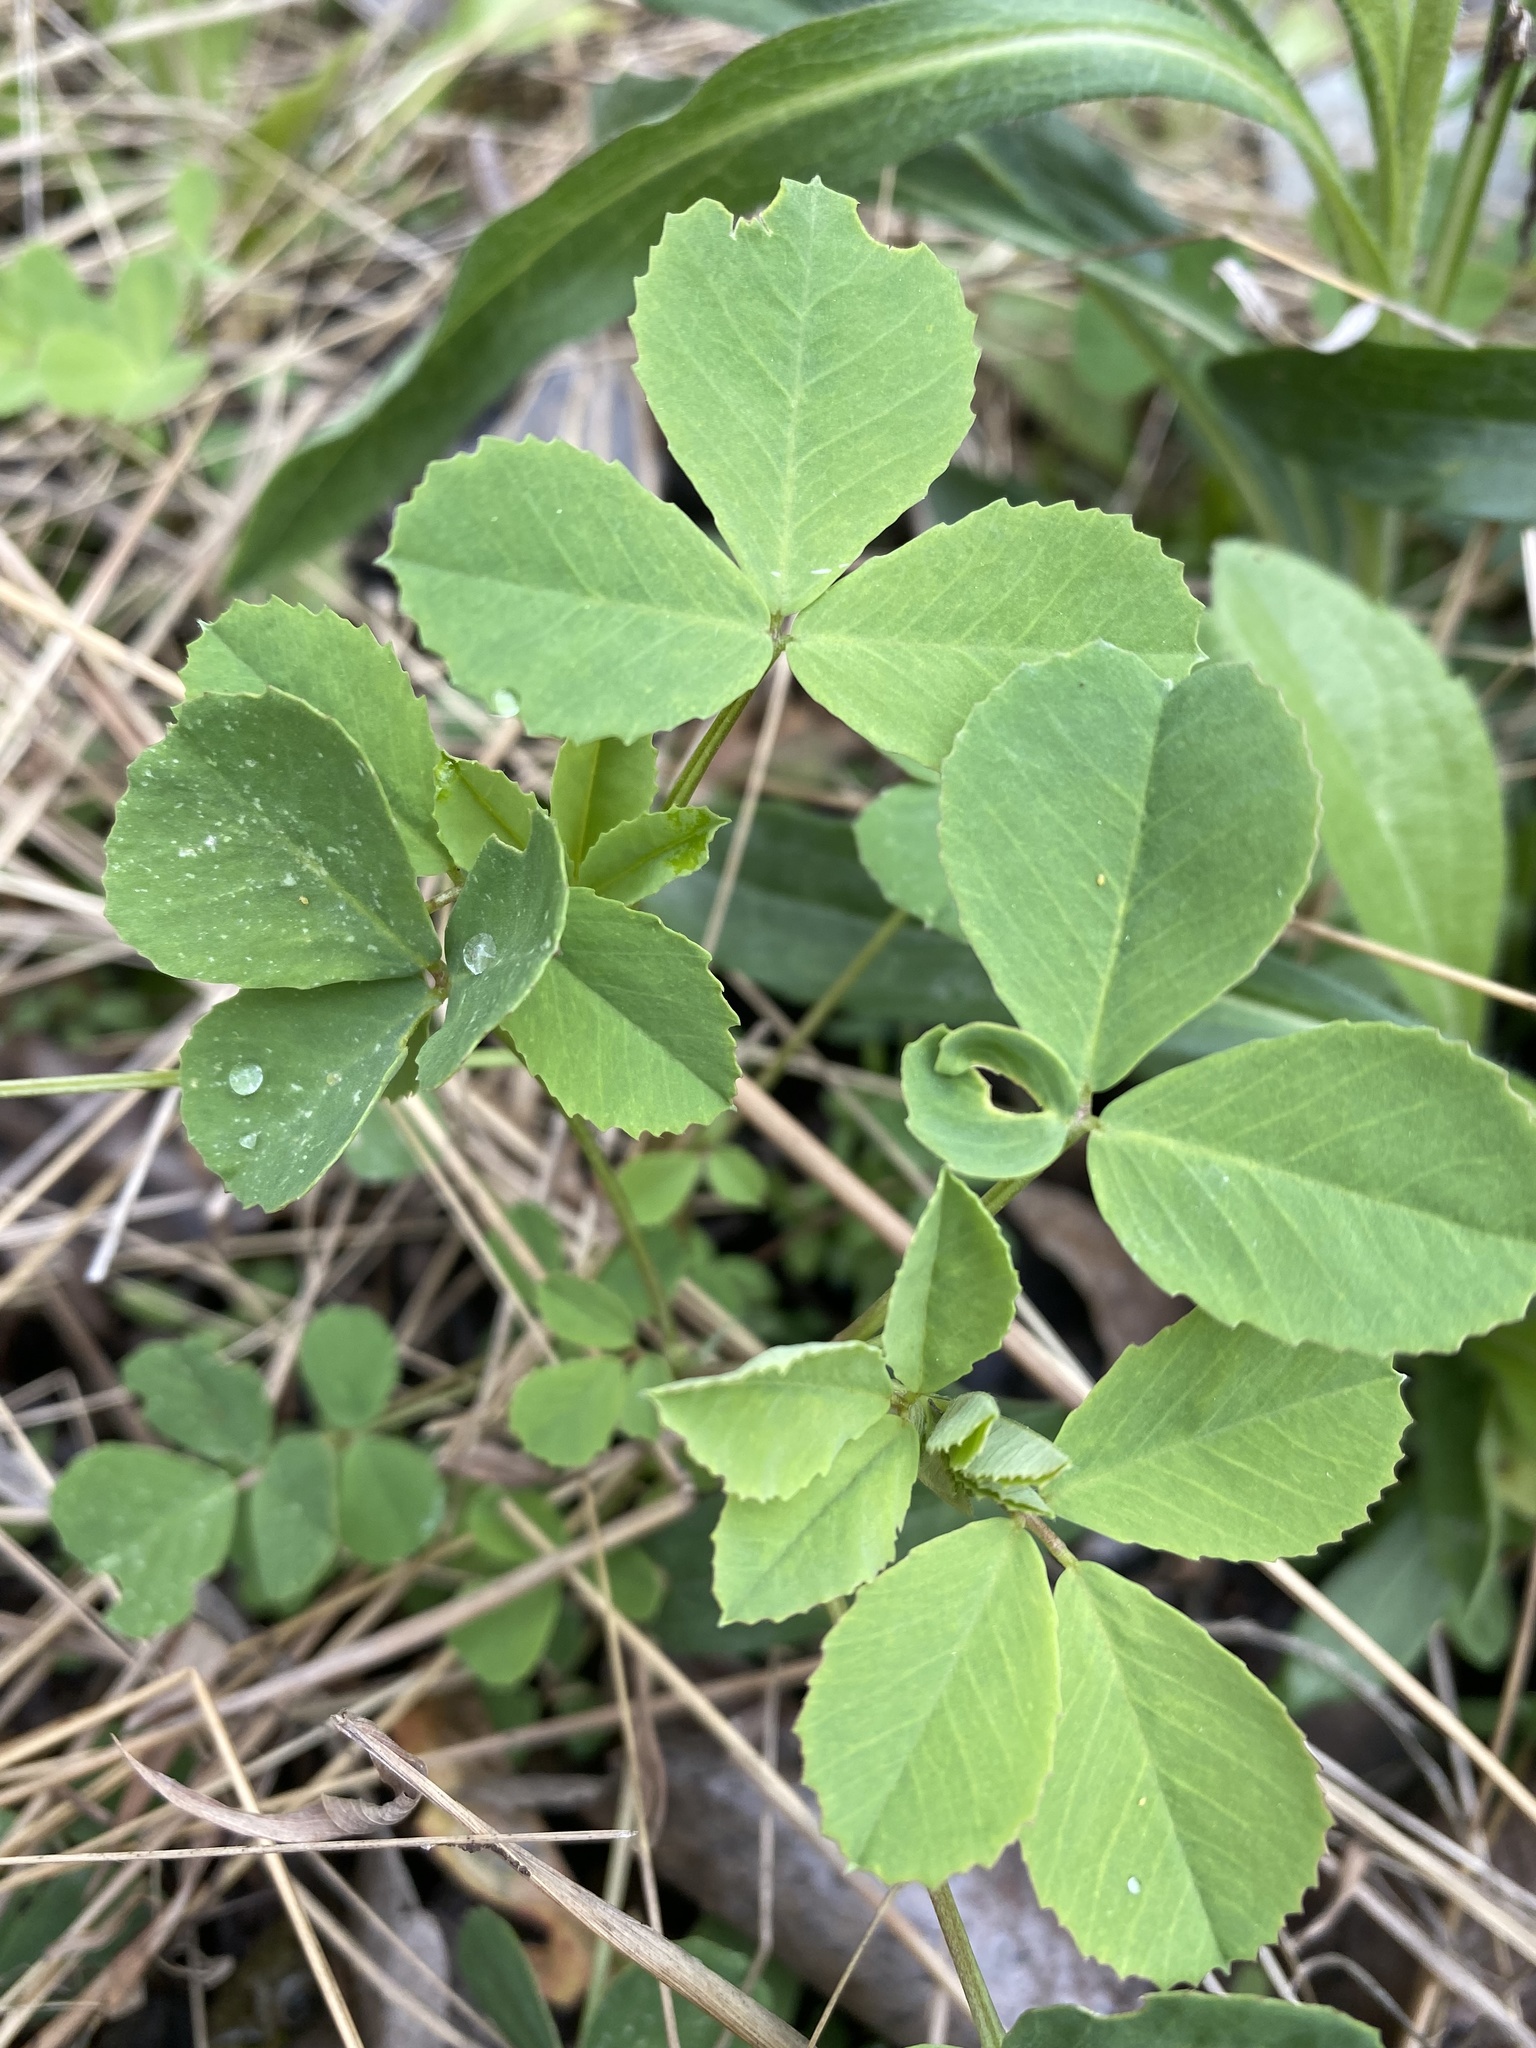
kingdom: Plantae
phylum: Tracheophyta
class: Magnoliopsida
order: Fabales
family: Fabaceae
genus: Medicago
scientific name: Medicago lupulina
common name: Black medick
